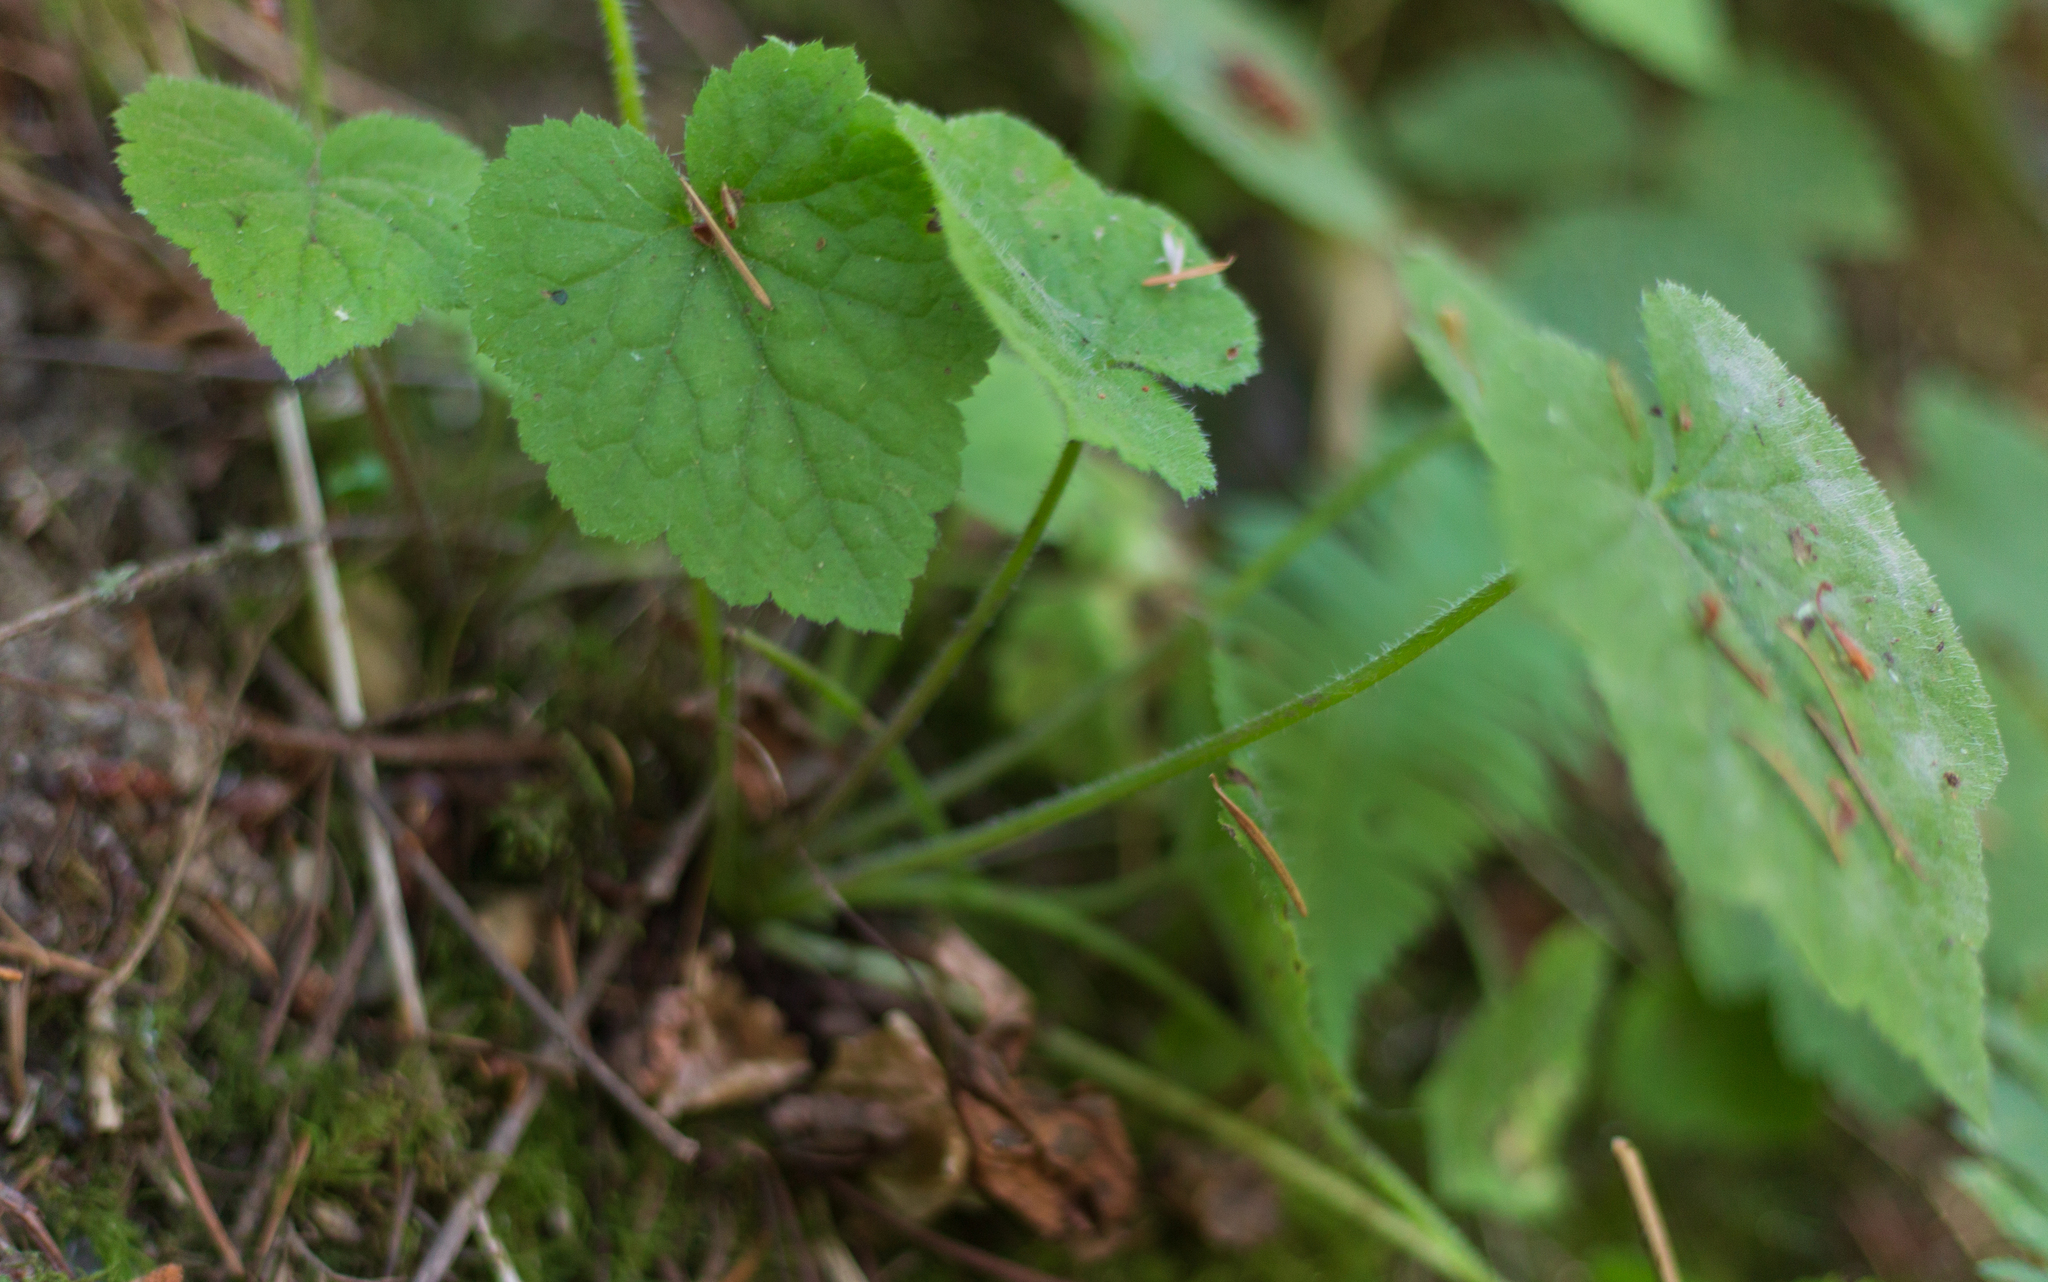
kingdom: Plantae
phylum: Tracheophyta
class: Magnoliopsida
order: Saxifragales
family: Saxifragaceae
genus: Tolmiea
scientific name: Tolmiea menziesii
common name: Pick-a-back-plant
